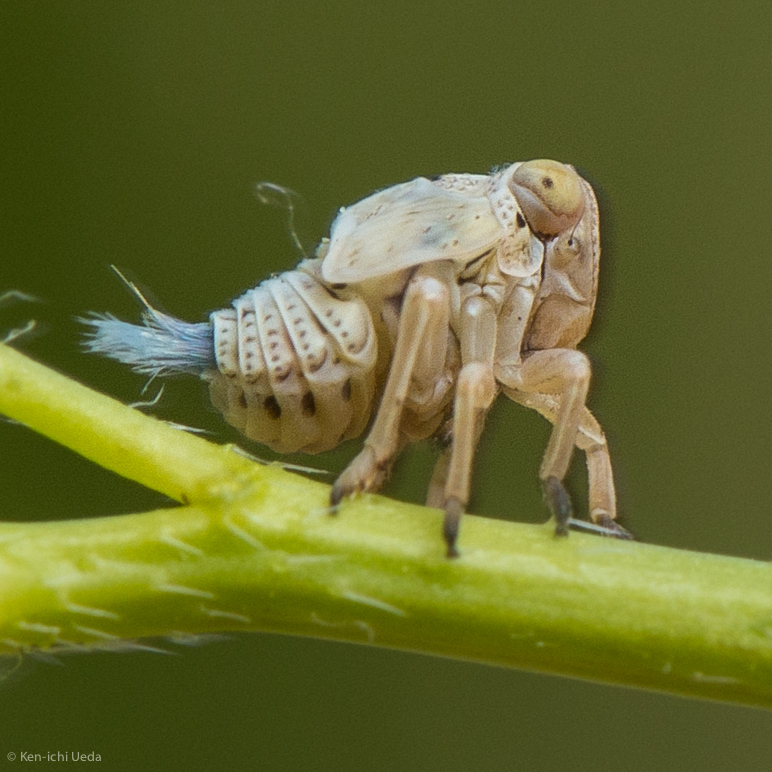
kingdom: Animalia
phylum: Arthropoda
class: Insecta
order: Hemiptera
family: Issidae
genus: Agalmatium
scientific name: Agalmatium bilobum
